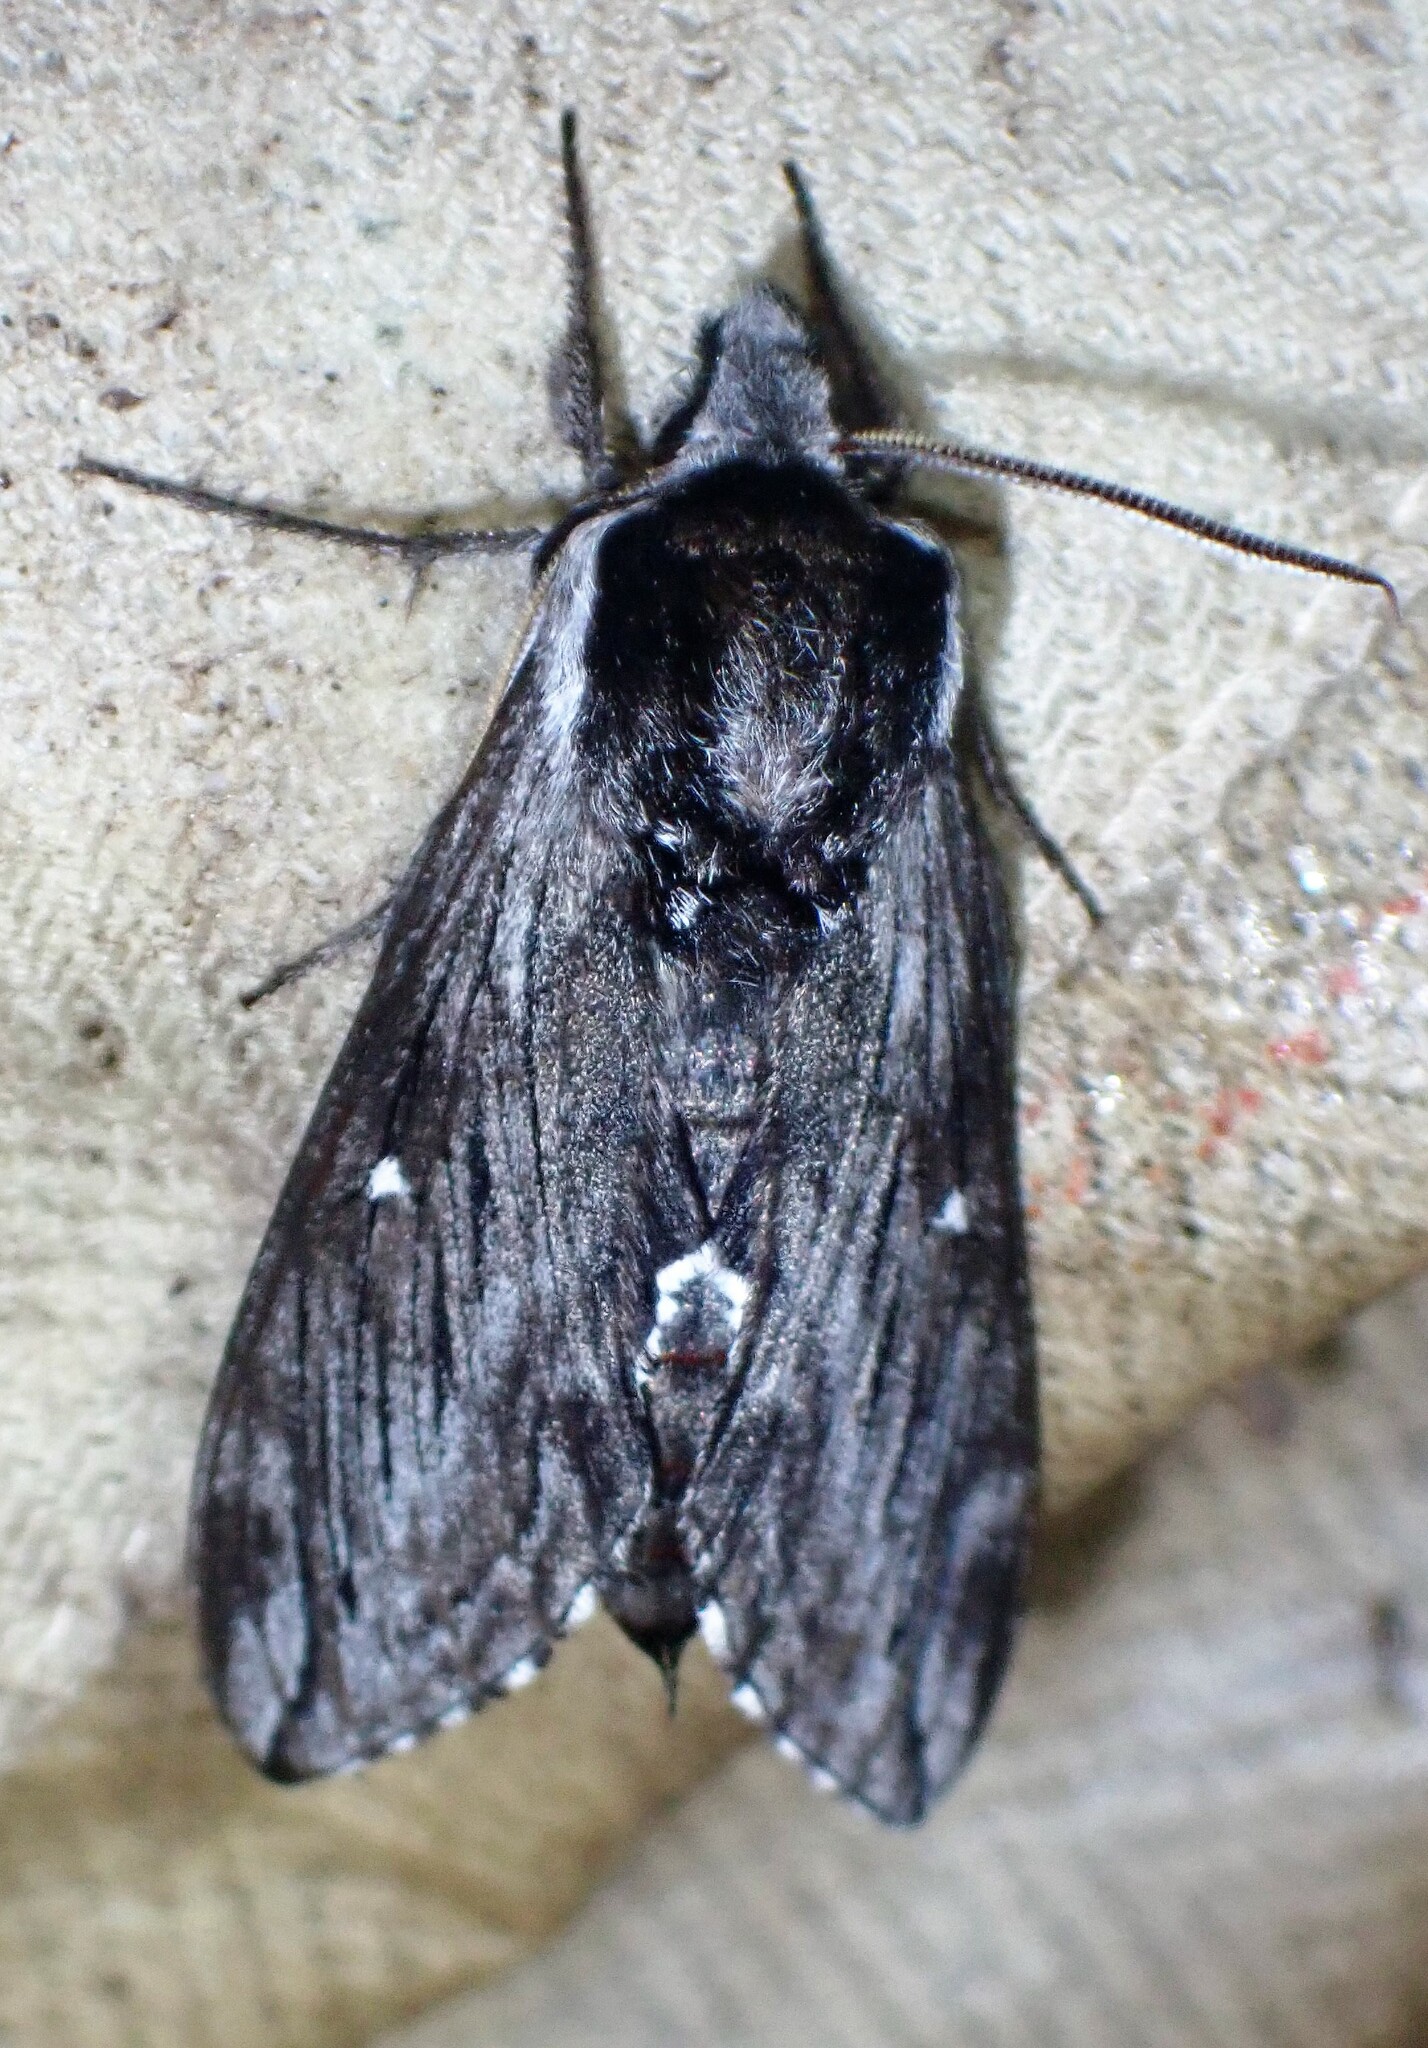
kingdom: Animalia
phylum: Arthropoda
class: Insecta
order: Lepidoptera
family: Sphingidae
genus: Sphinx
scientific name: Sphinx poecila
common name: Northern apple sphinx
